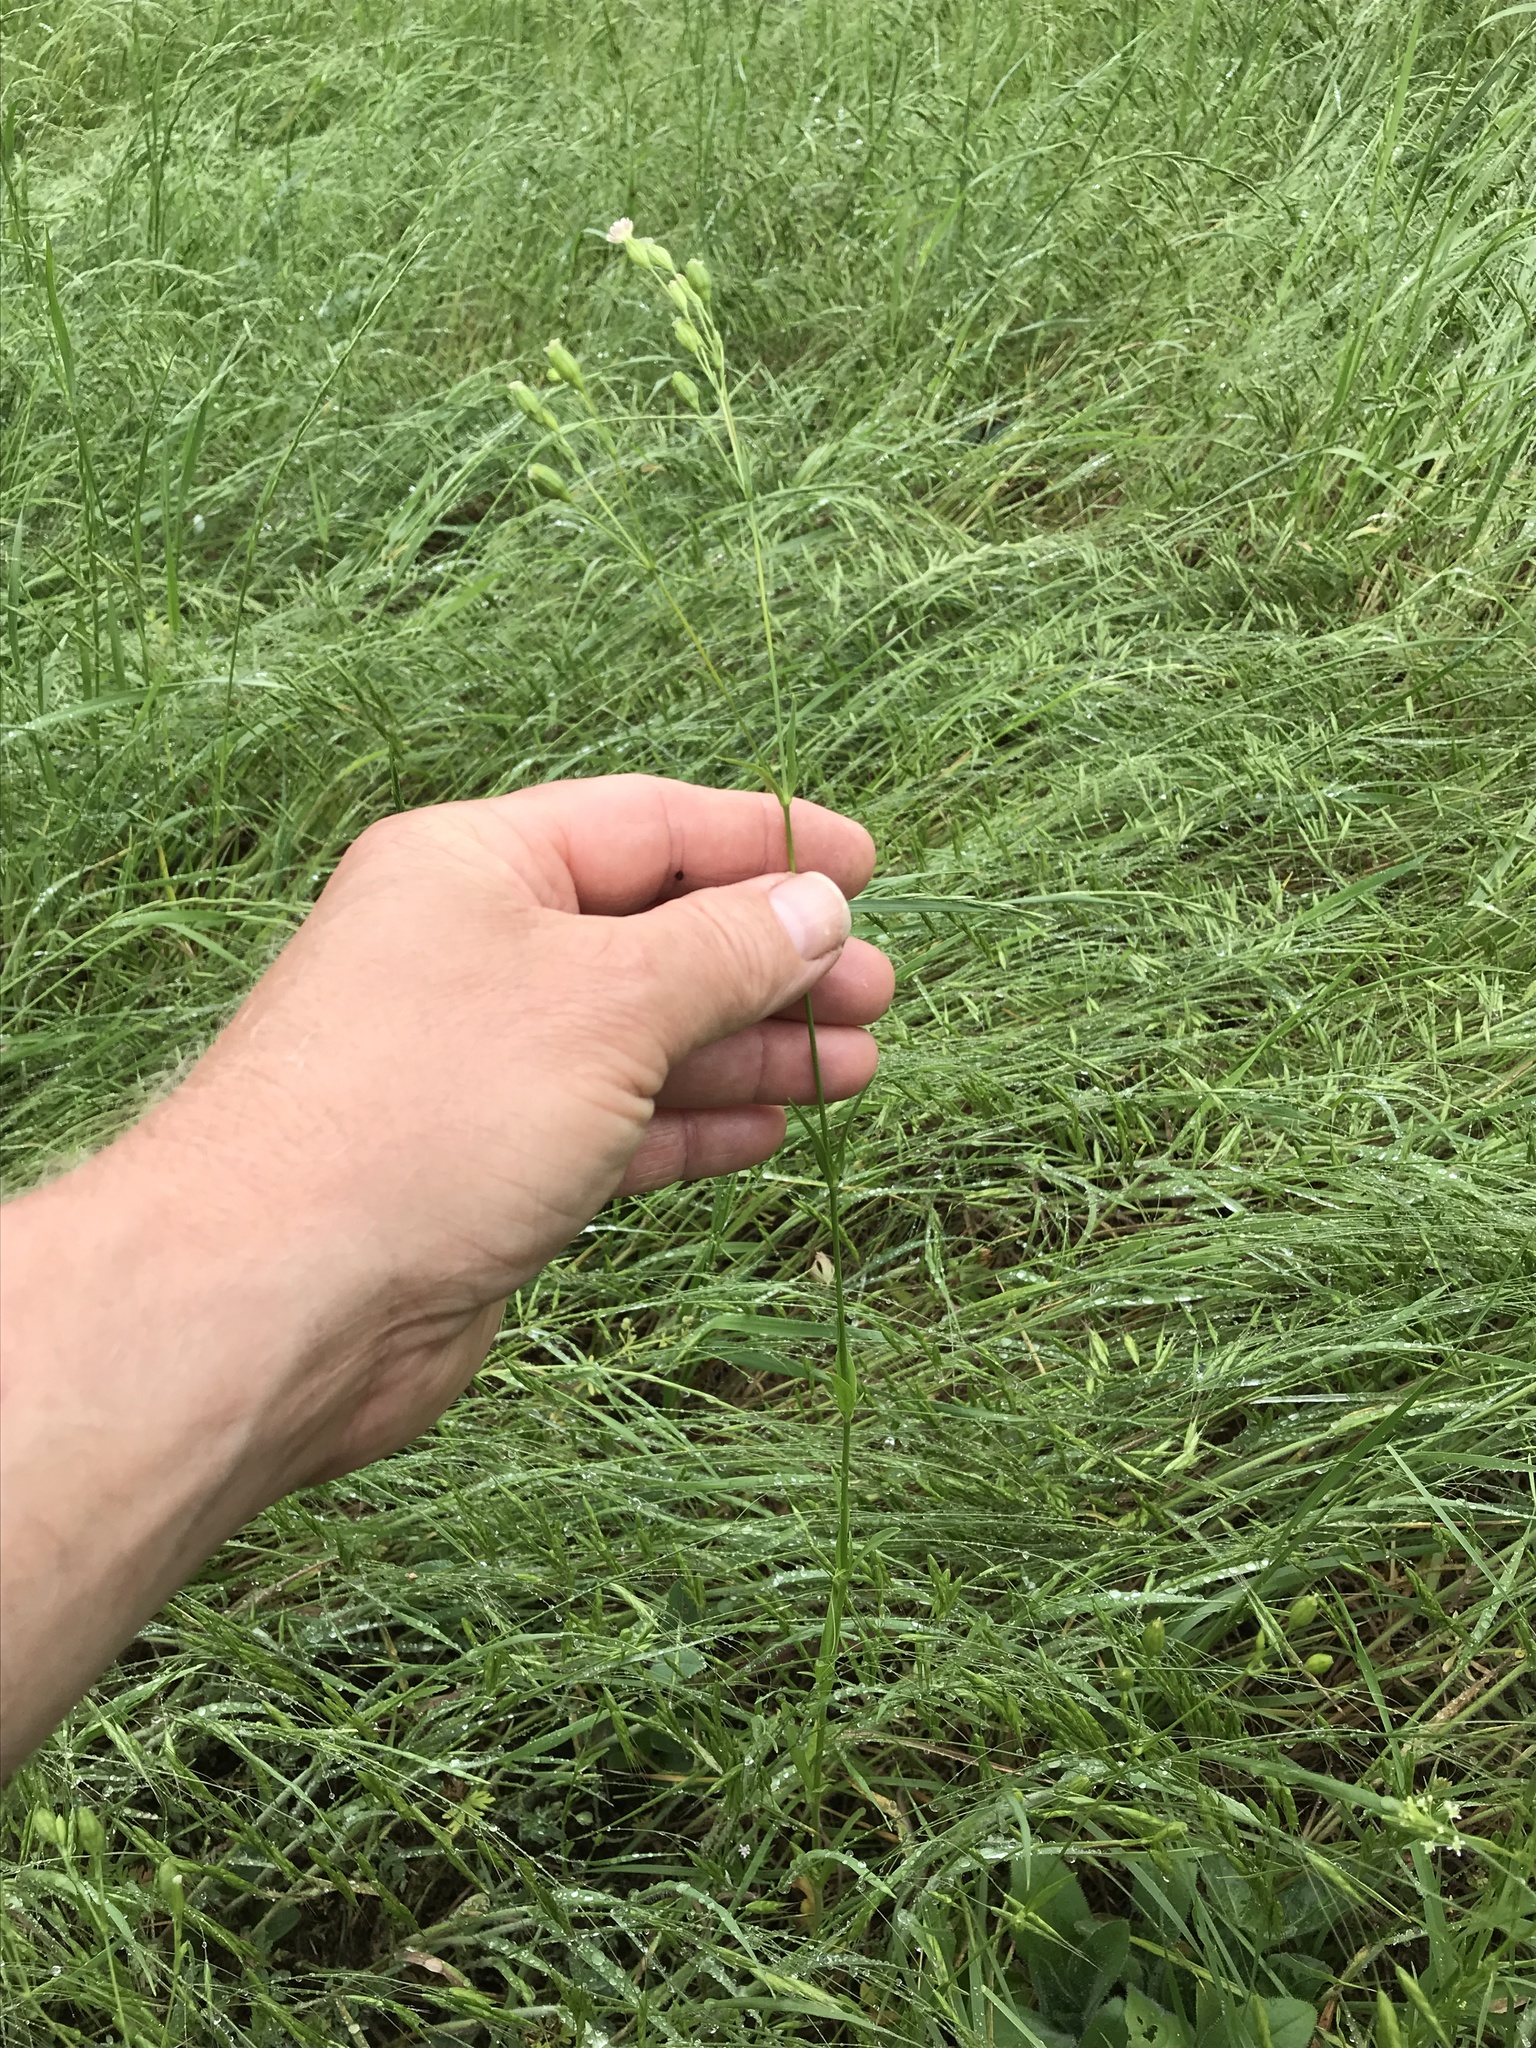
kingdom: Plantae
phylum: Tracheophyta
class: Magnoliopsida
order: Caryophyllales
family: Caryophyllaceae
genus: Silene
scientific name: Silene antirrhina
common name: Sleepy catchfly
